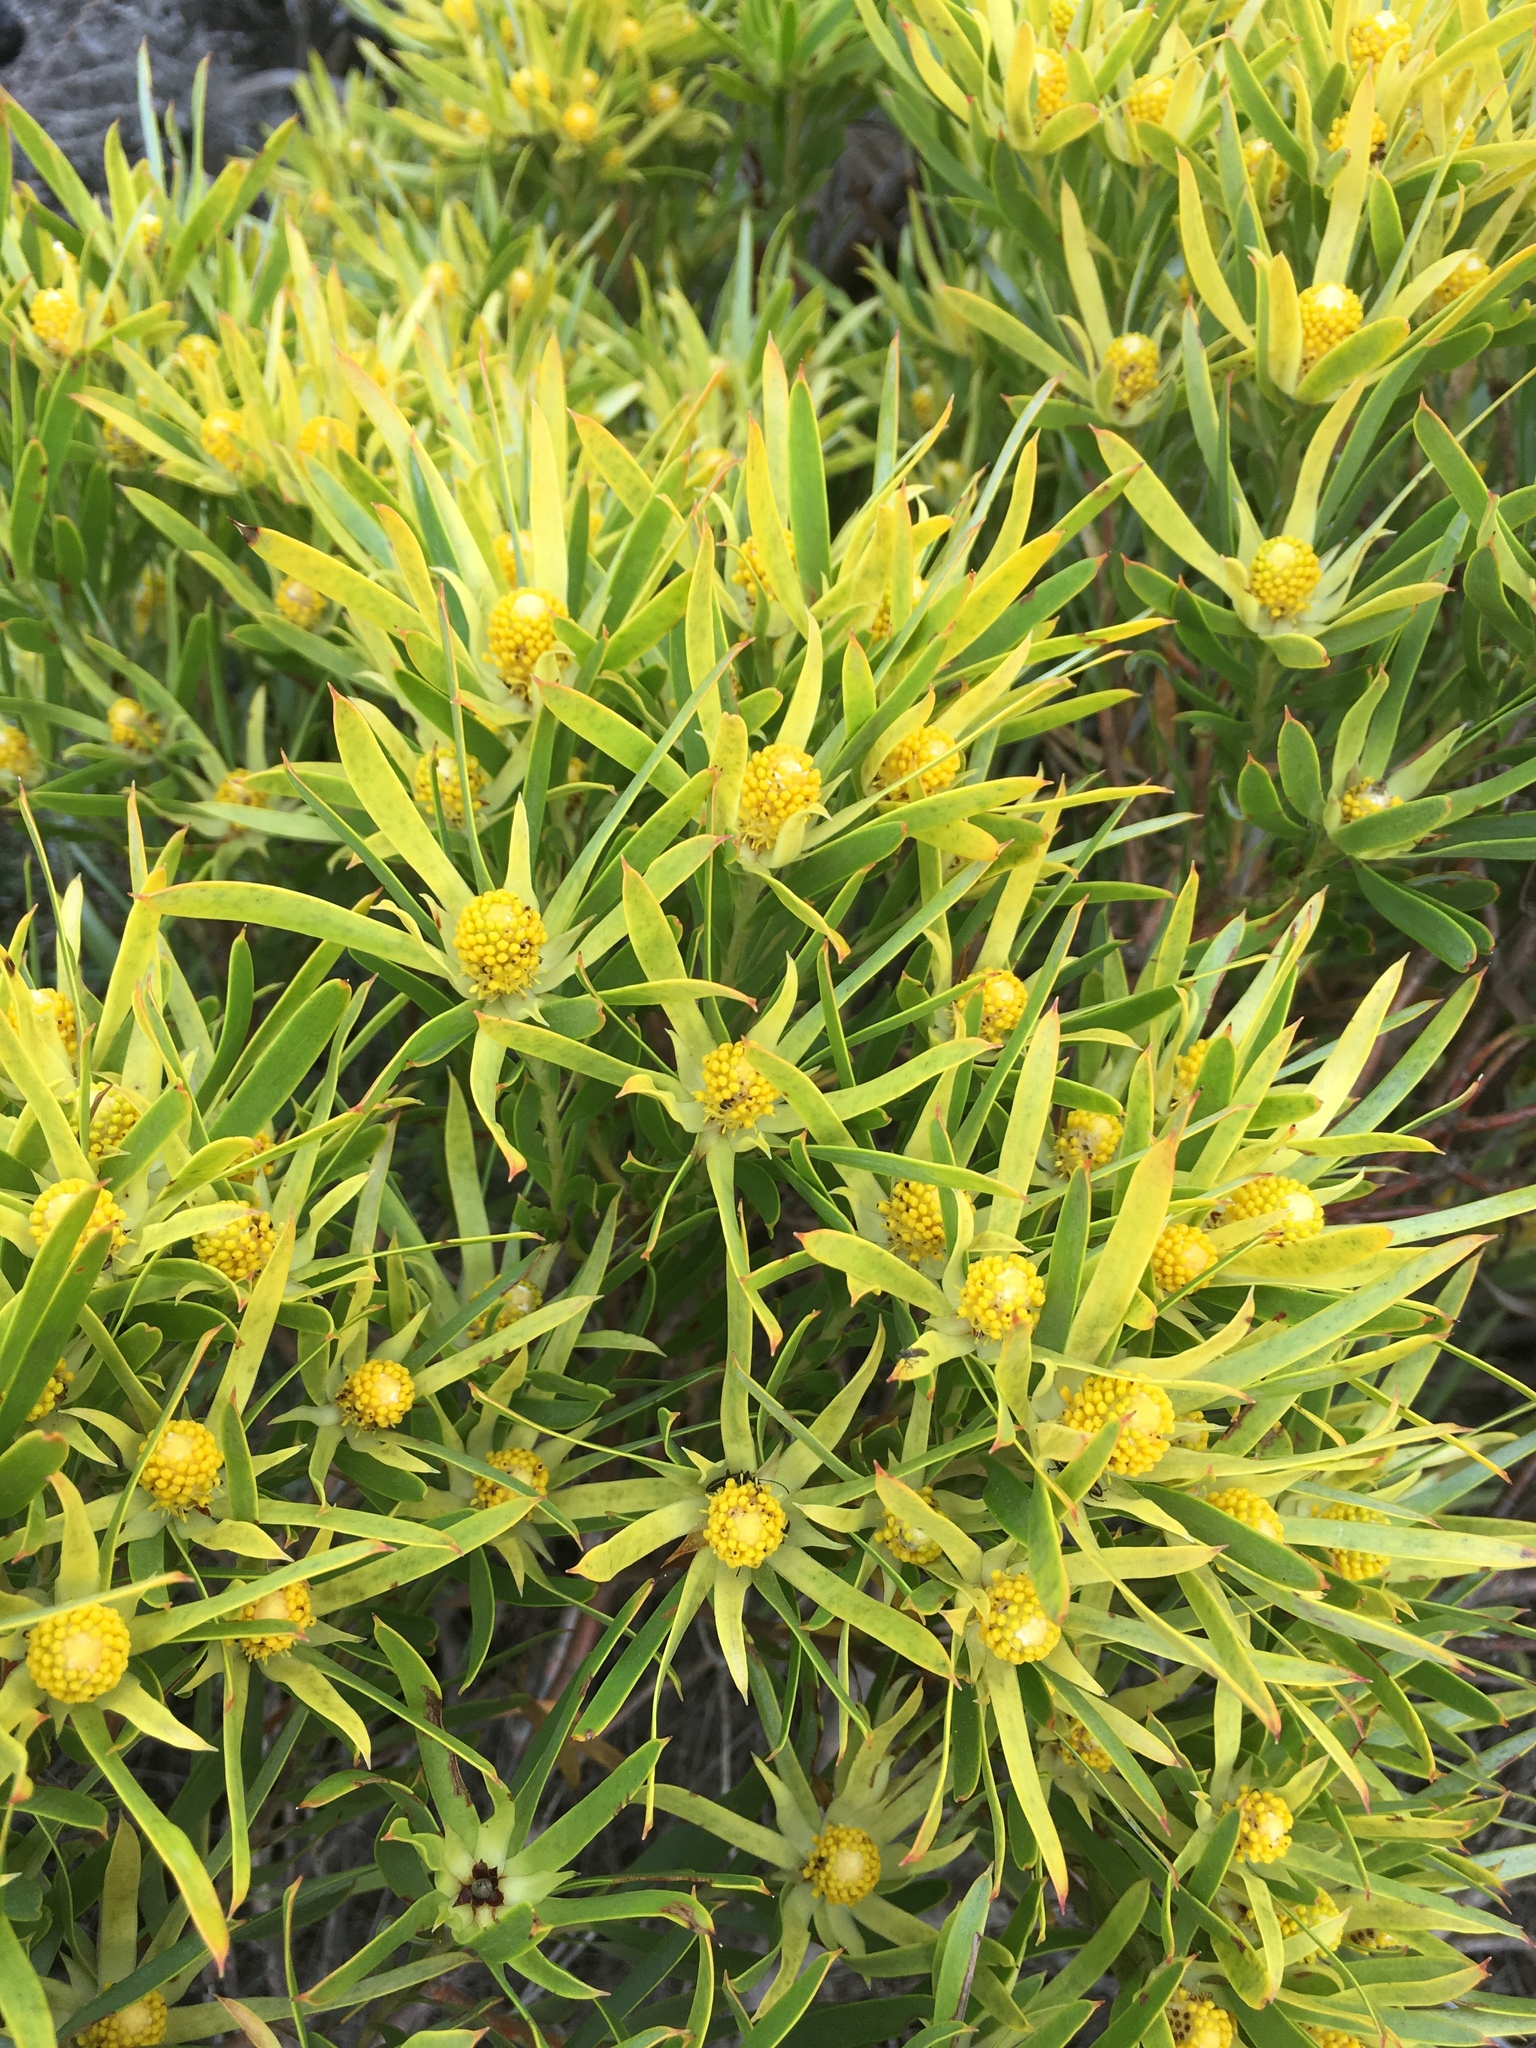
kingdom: Plantae
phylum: Tracheophyta
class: Magnoliopsida
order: Proteales
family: Proteaceae
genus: Leucadendron
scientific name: Leucadendron xanthoconus
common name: Sickle-leaf conebush
